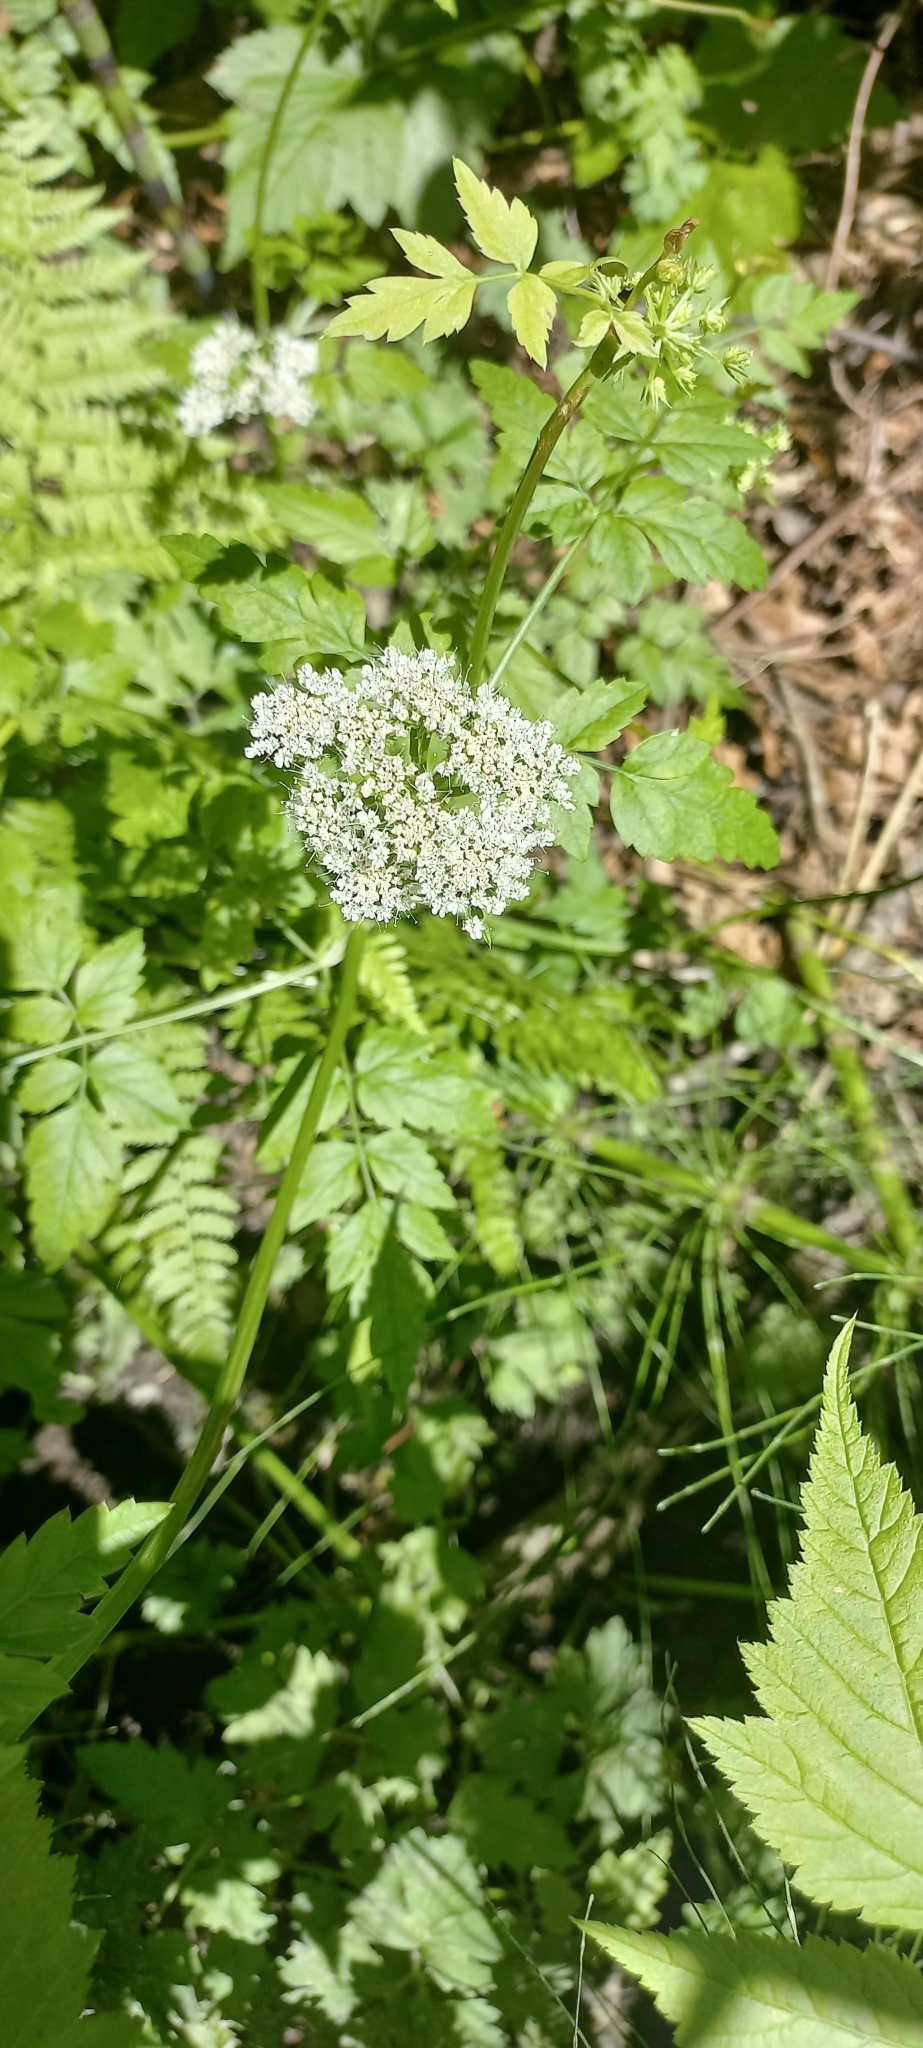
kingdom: Plantae
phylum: Tracheophyta
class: Magnoliopsida
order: Apiales
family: Apiaceae
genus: Oenanthe
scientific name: Oenanthe sarmentosa
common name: American water-parsley
